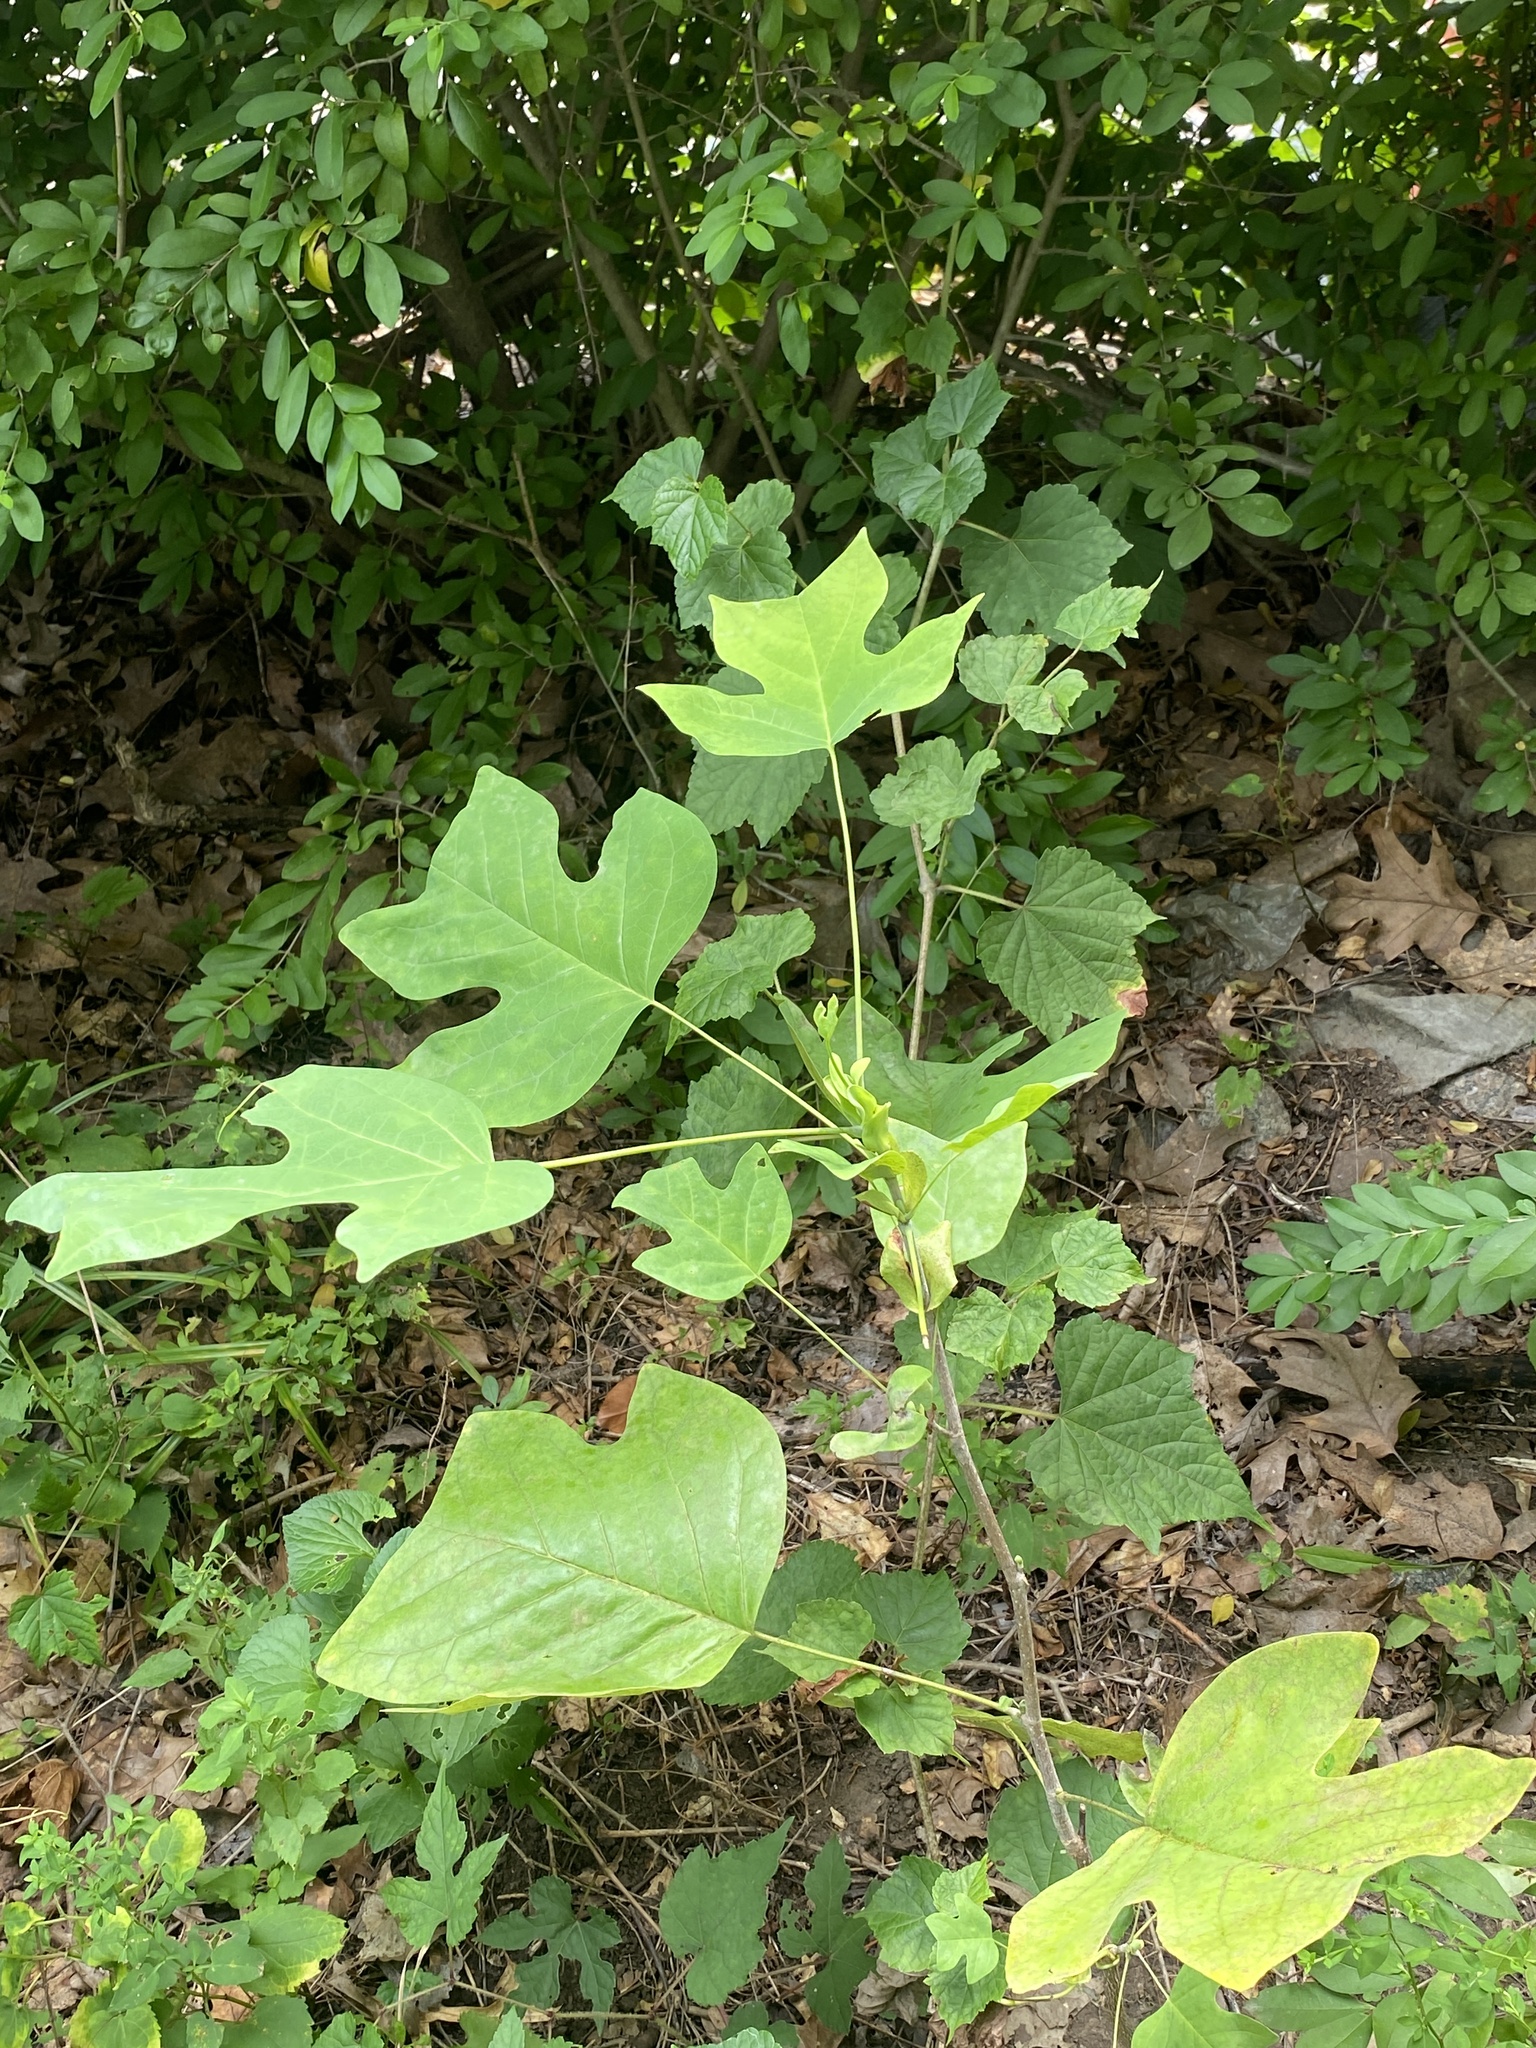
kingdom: Plantae
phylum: Tracheophyta
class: Magnoliopsida
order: Magnoliales
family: Magnoliaceae
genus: Liriodendron
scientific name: Liriodendron tulipifera
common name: Tulip tree
